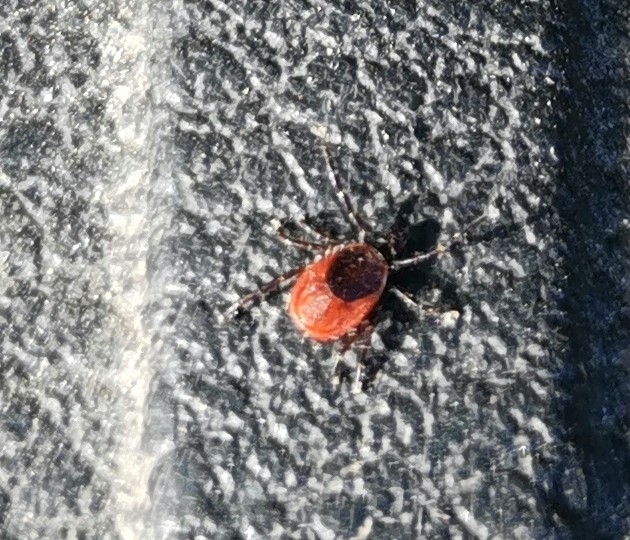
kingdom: Animalia
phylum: Arthropoda
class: Arachnida
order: Ixodida
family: Ixodidae
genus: Ixodes
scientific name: Ixodes ricinus
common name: Castor bean tick
